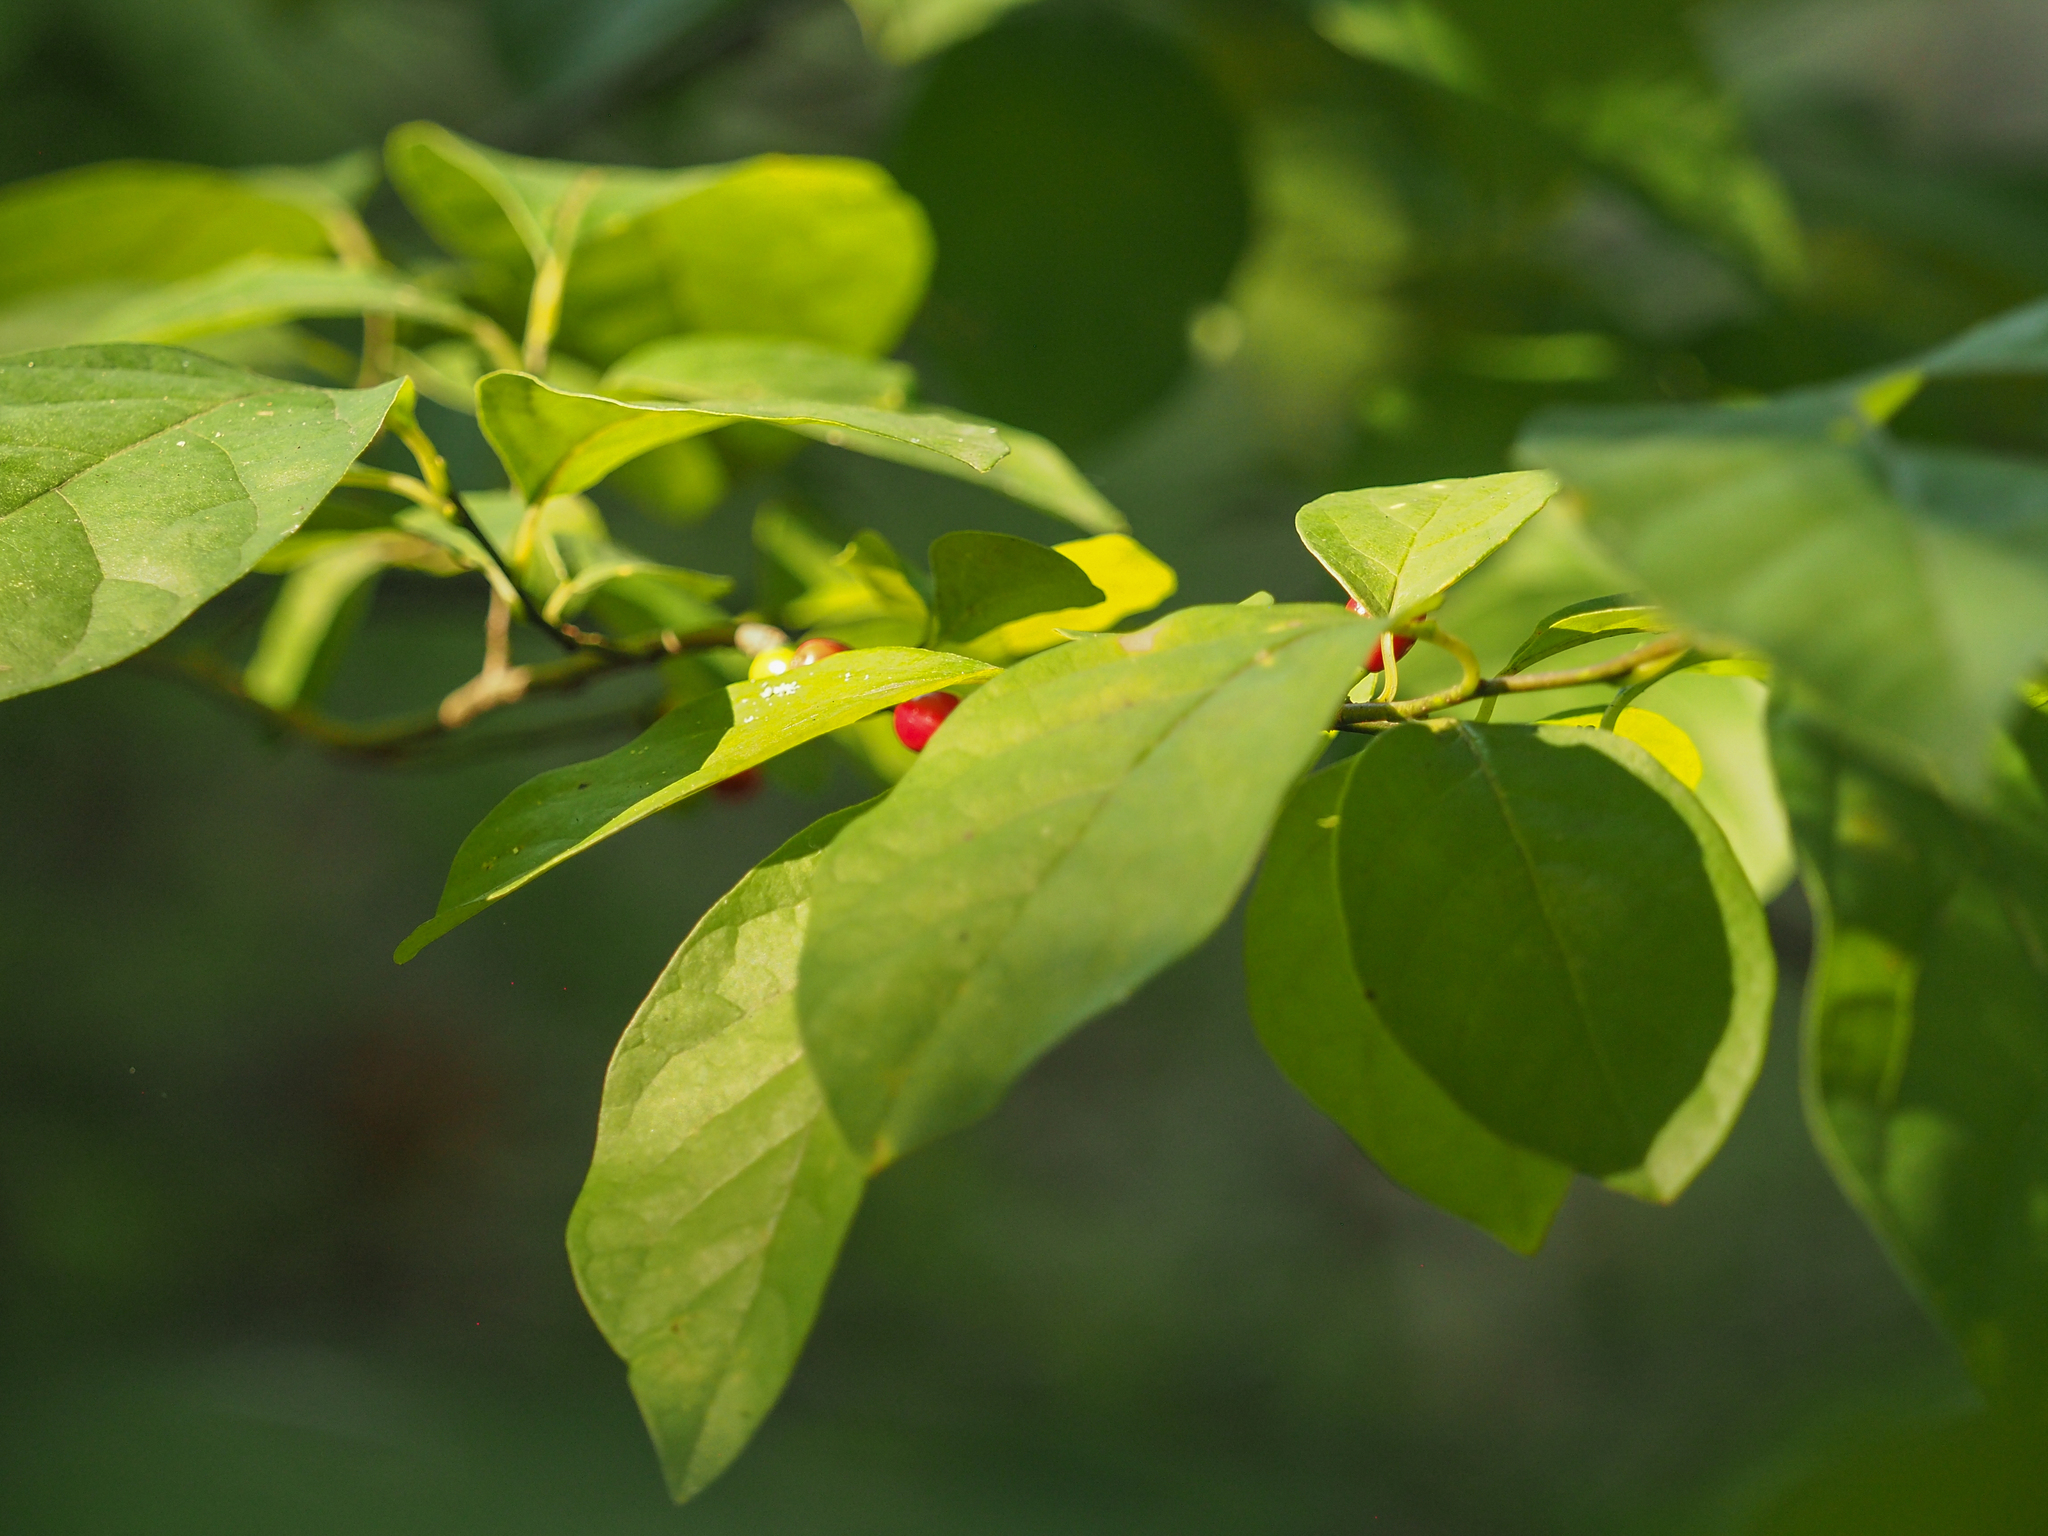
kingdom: Plantae
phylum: Tracheophyta
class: Magnoliopsida
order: Laurales
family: Lauraceae
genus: Lindera
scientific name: Lindera benzoin
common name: Spicebush
